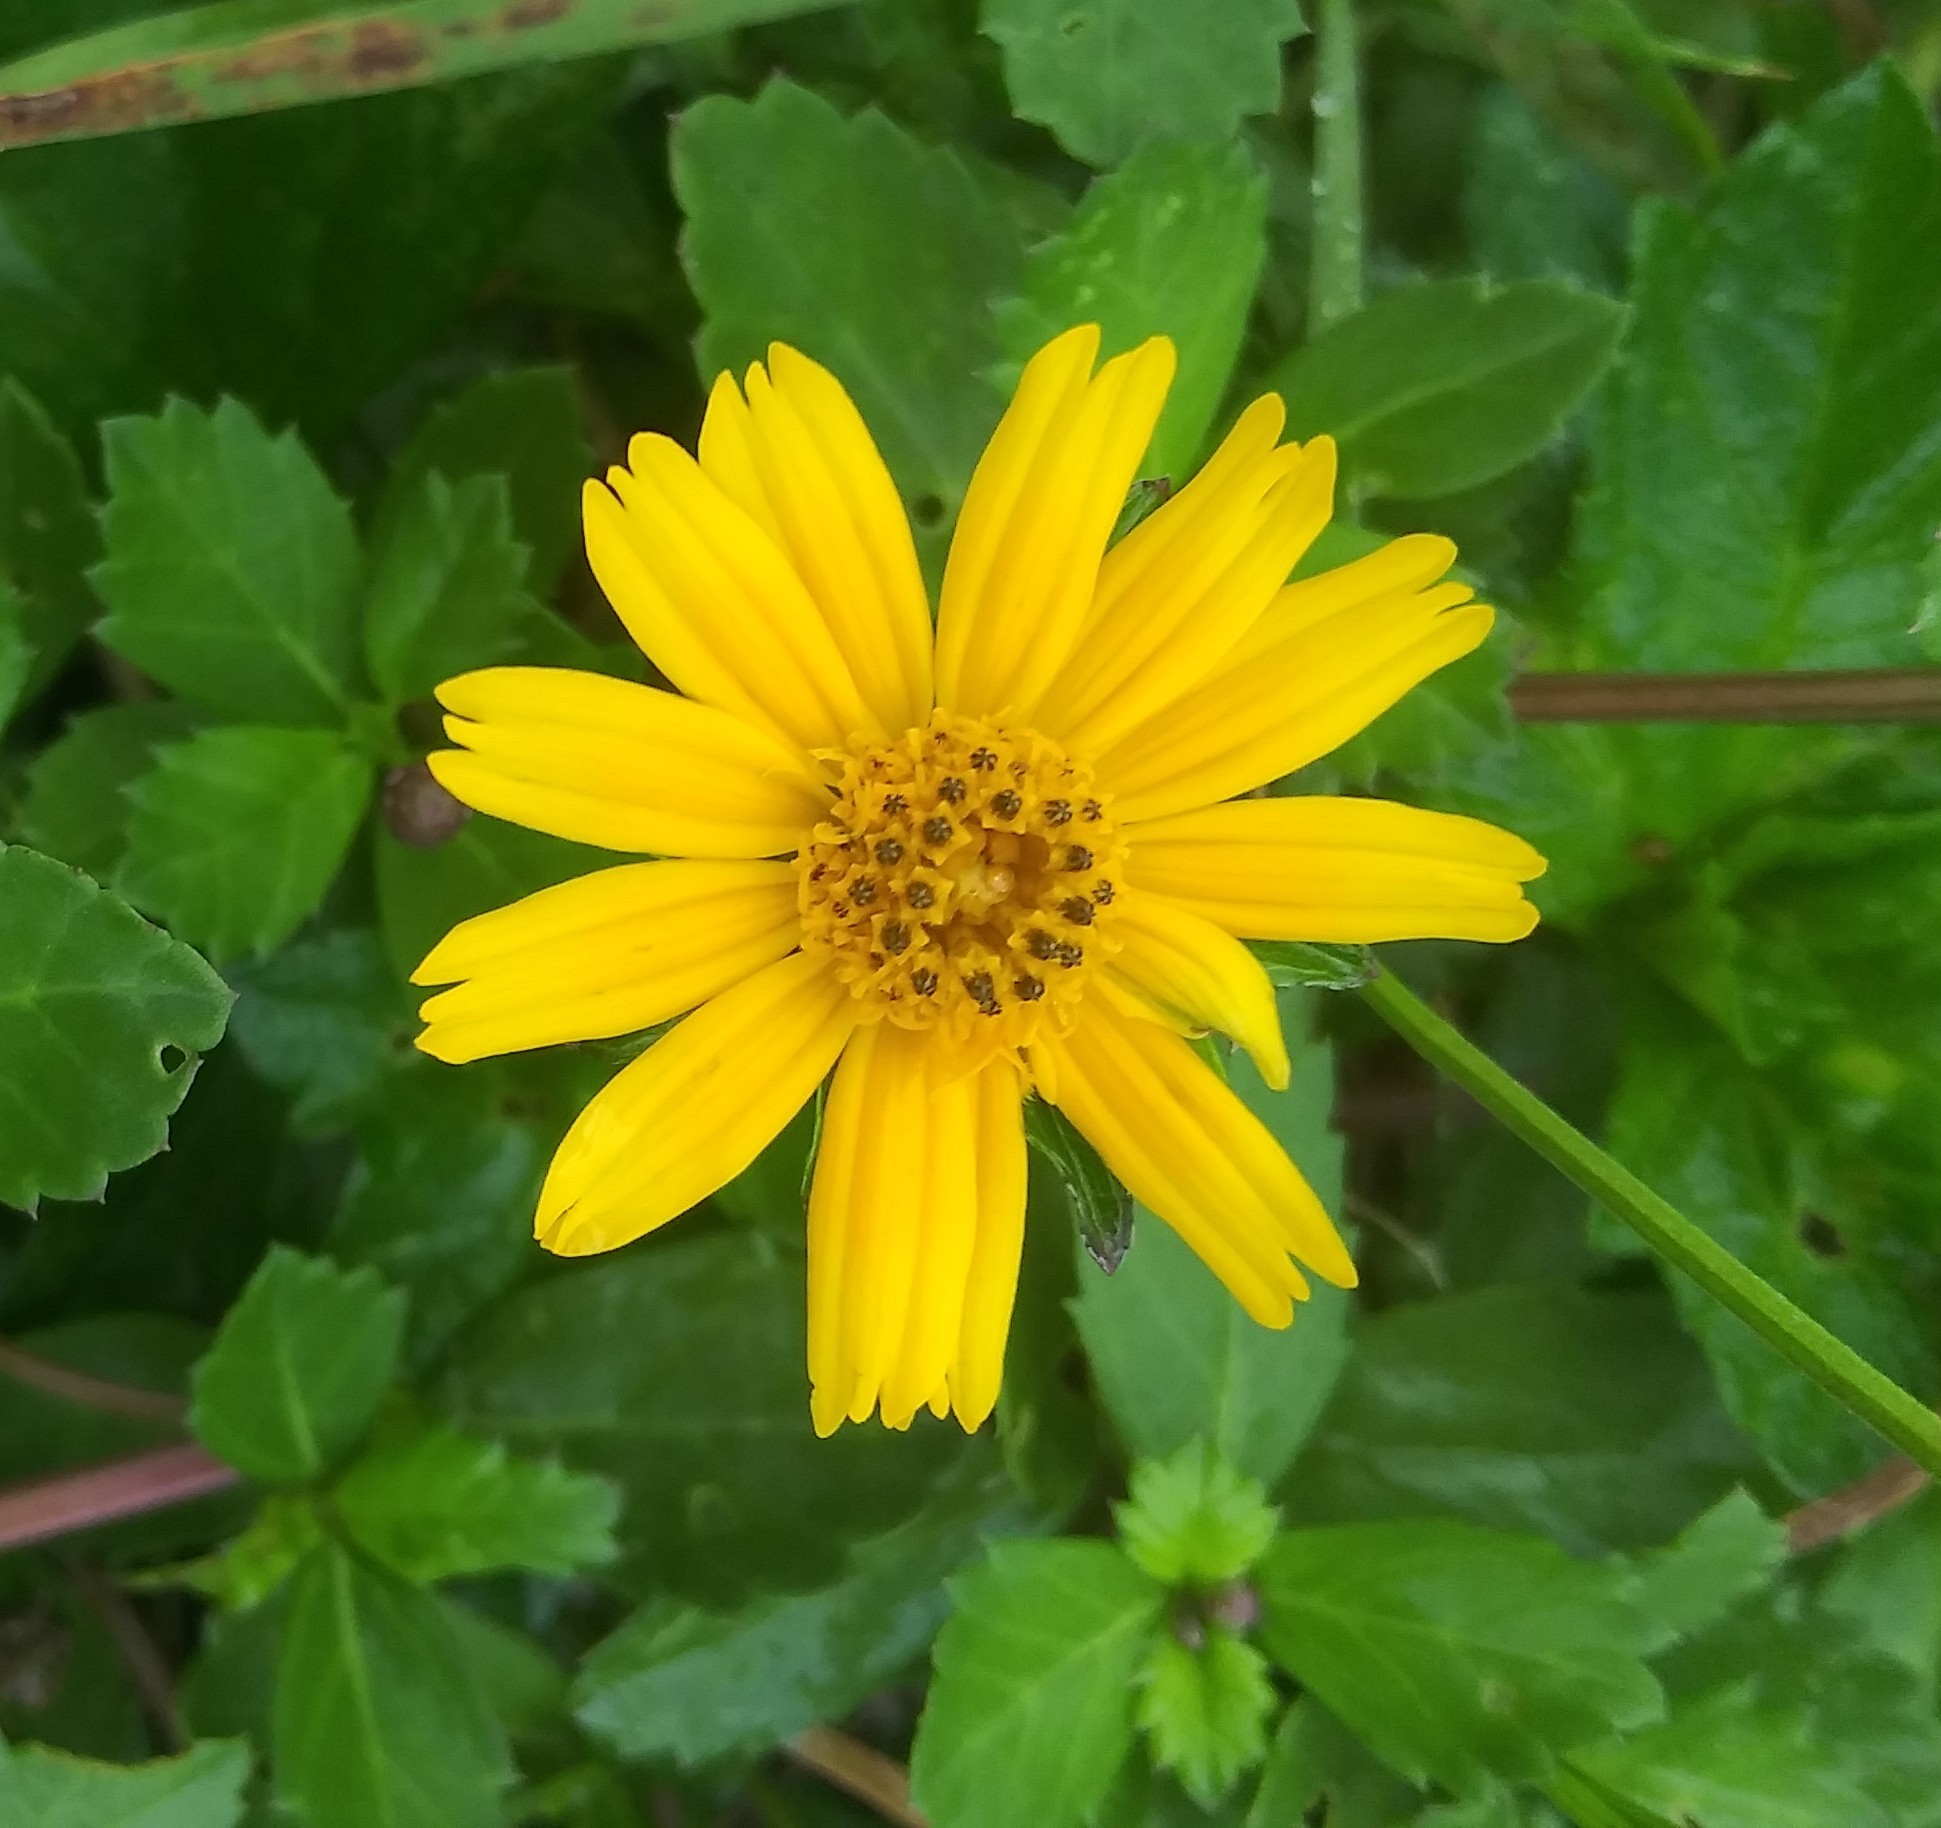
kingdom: Plantae
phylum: Tracheophyta
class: Magnoliopsida
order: Asterales
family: Asteraceae
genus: Sphagneticola
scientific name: Sphagneticola trilobata
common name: Bay biscayne creeping-oxeye
